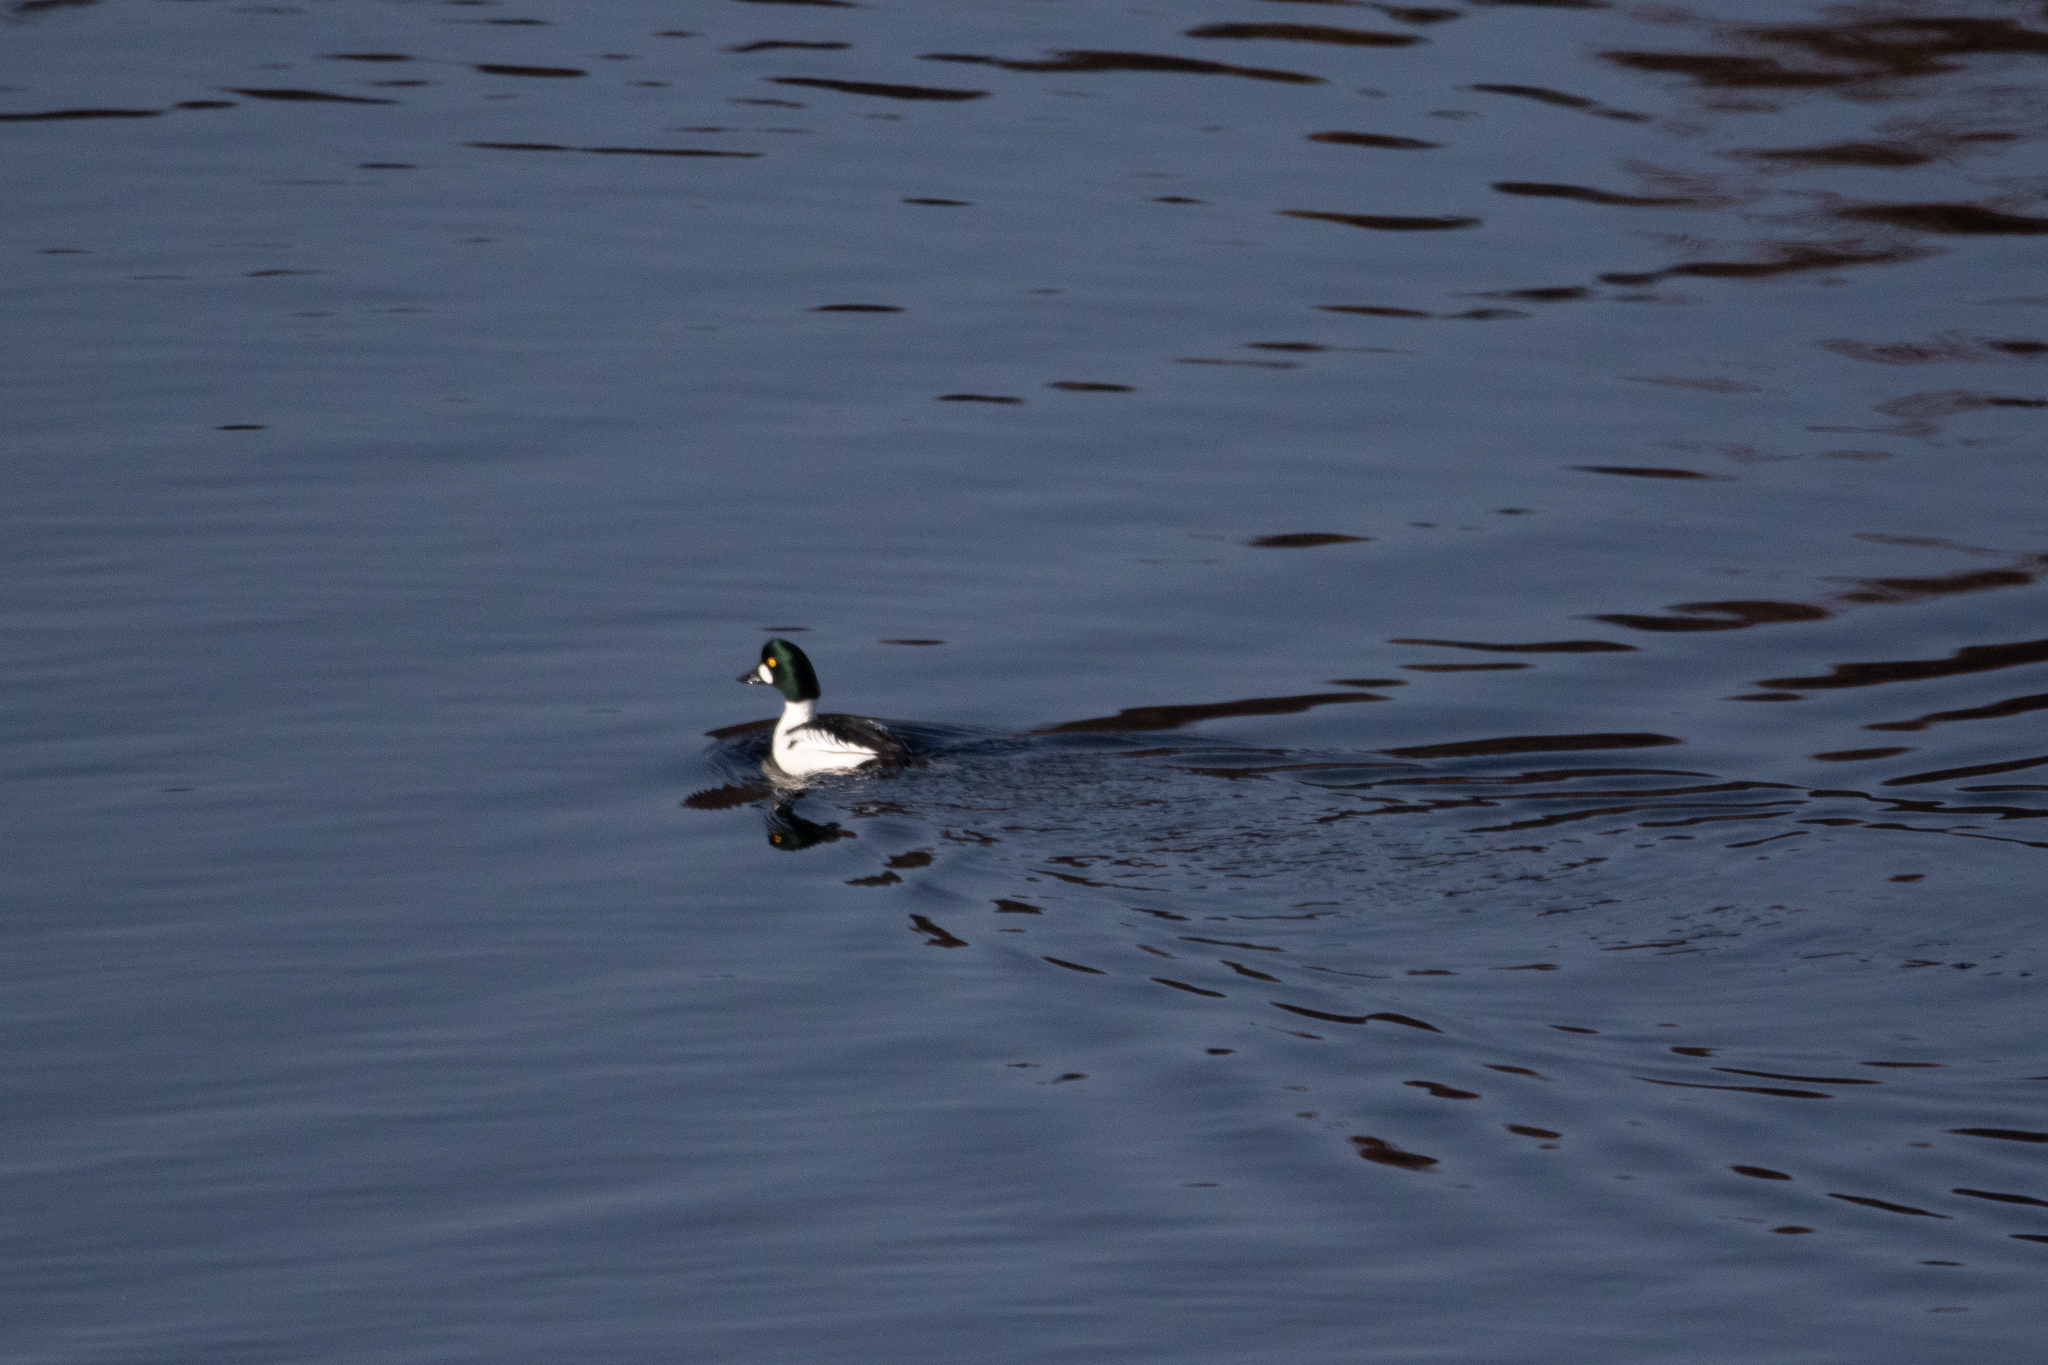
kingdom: Animalia
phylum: Chordata
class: Aves
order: Anseriformes
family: Anatidae
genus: Bucephala
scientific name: Bucephala clangula
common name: Common goldeneye
